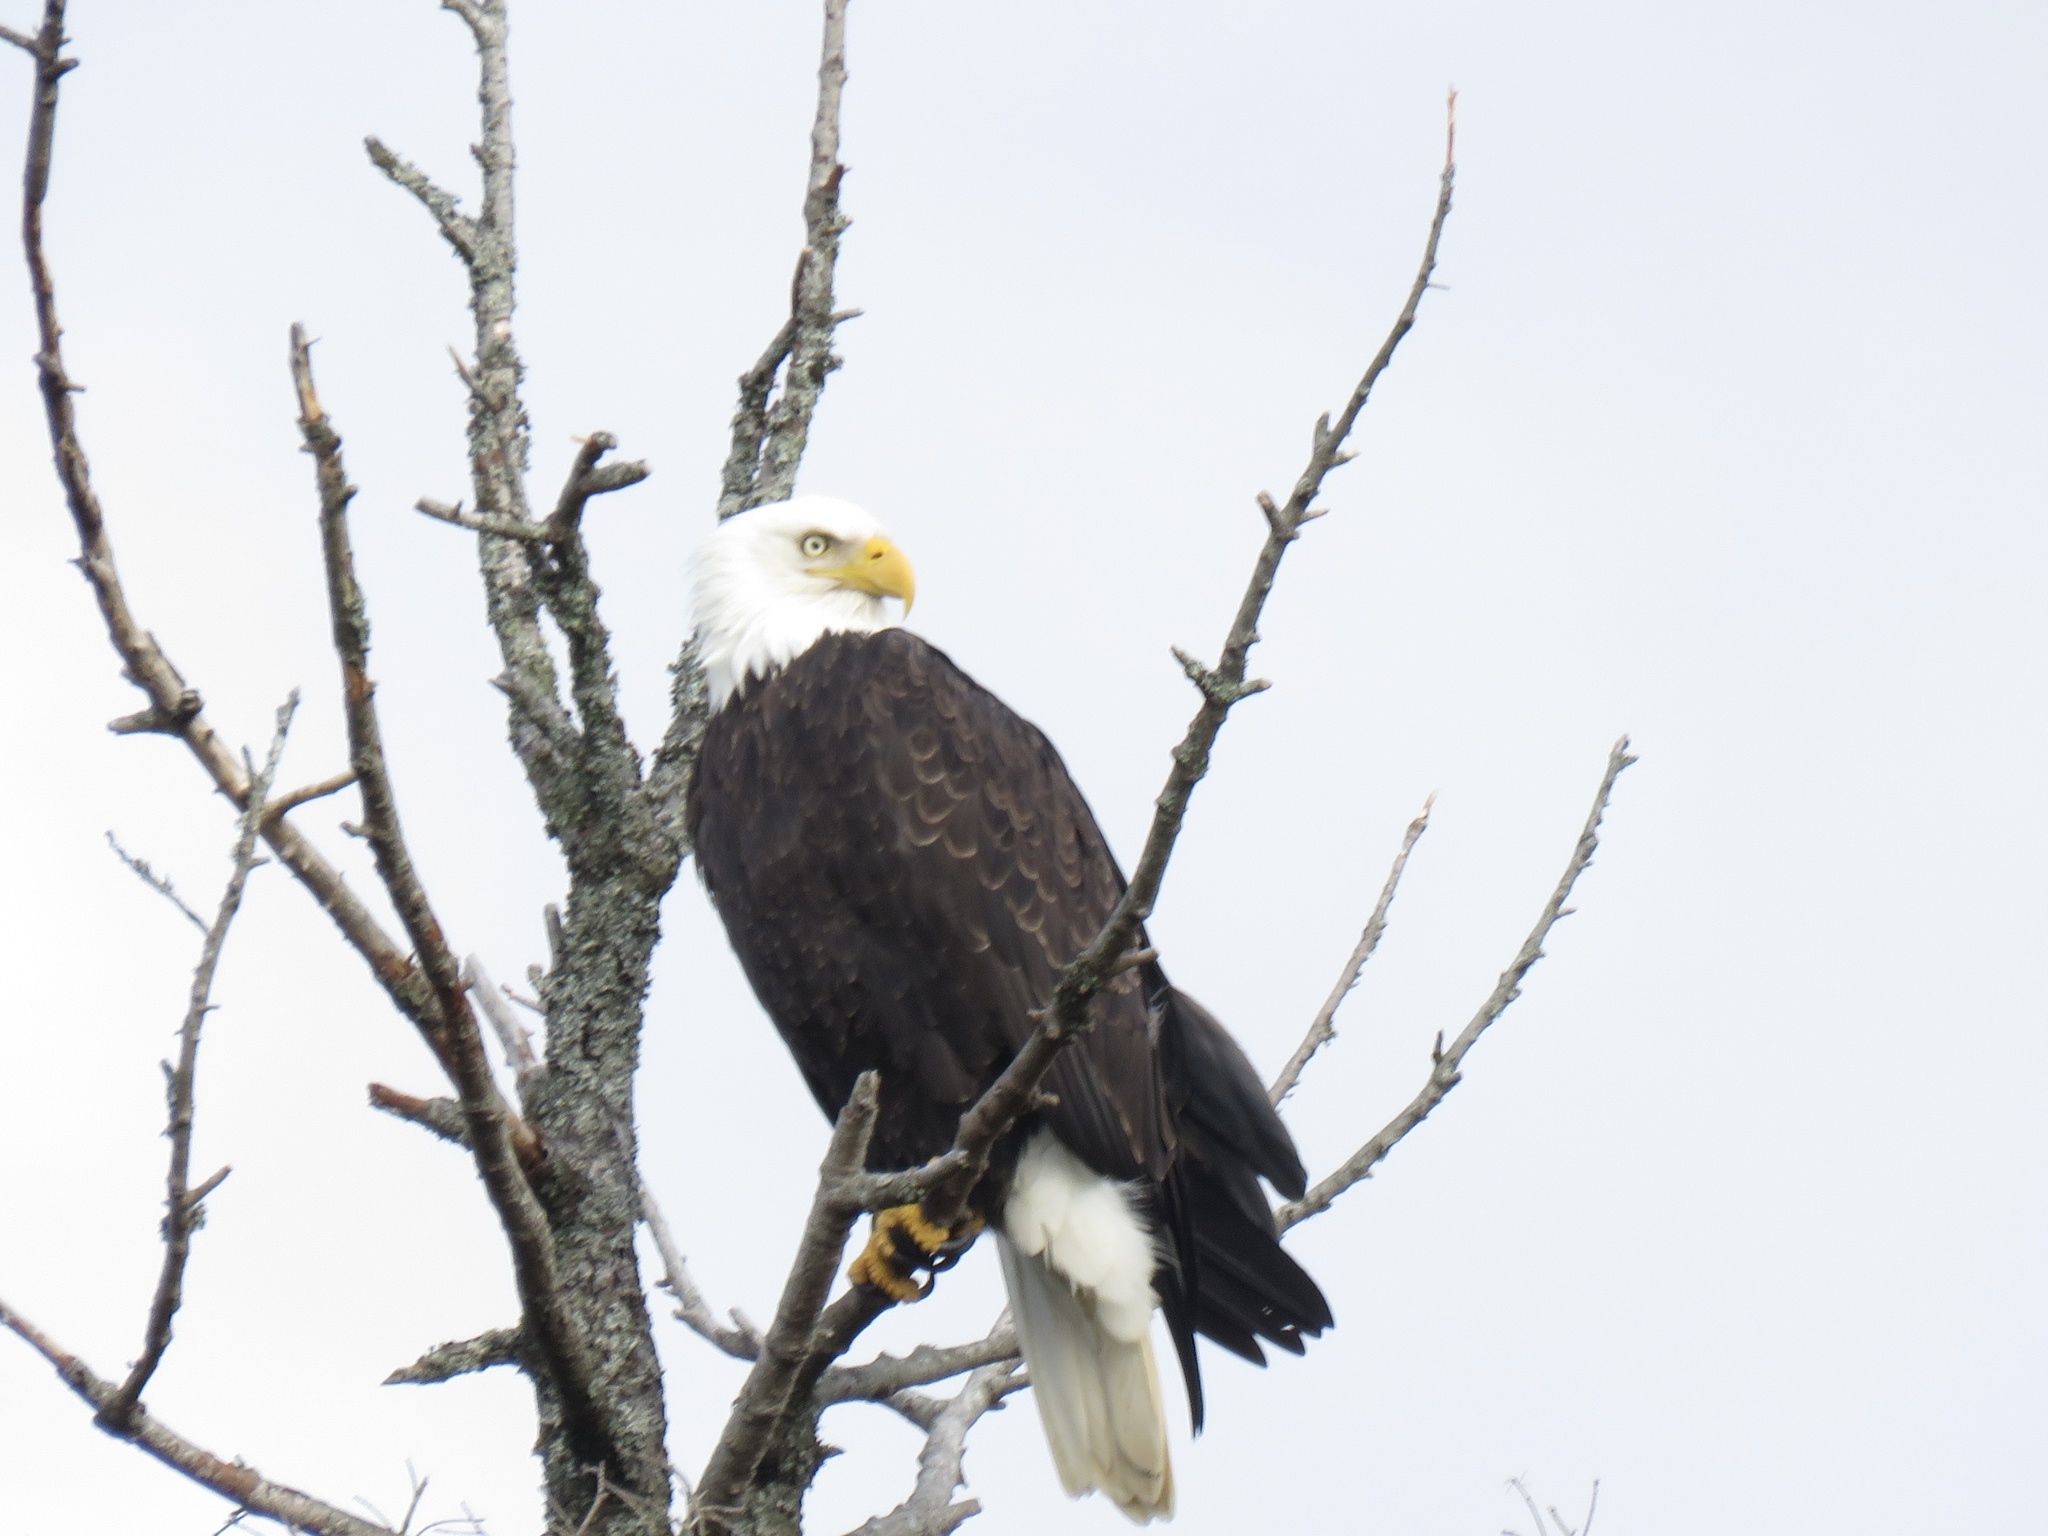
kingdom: Animalia
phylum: Chordata
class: Aves
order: Accipitriformes
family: Accipitridae
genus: Haliaeetus
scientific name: Haliaeetus leucocephalus
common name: Bald eagle
